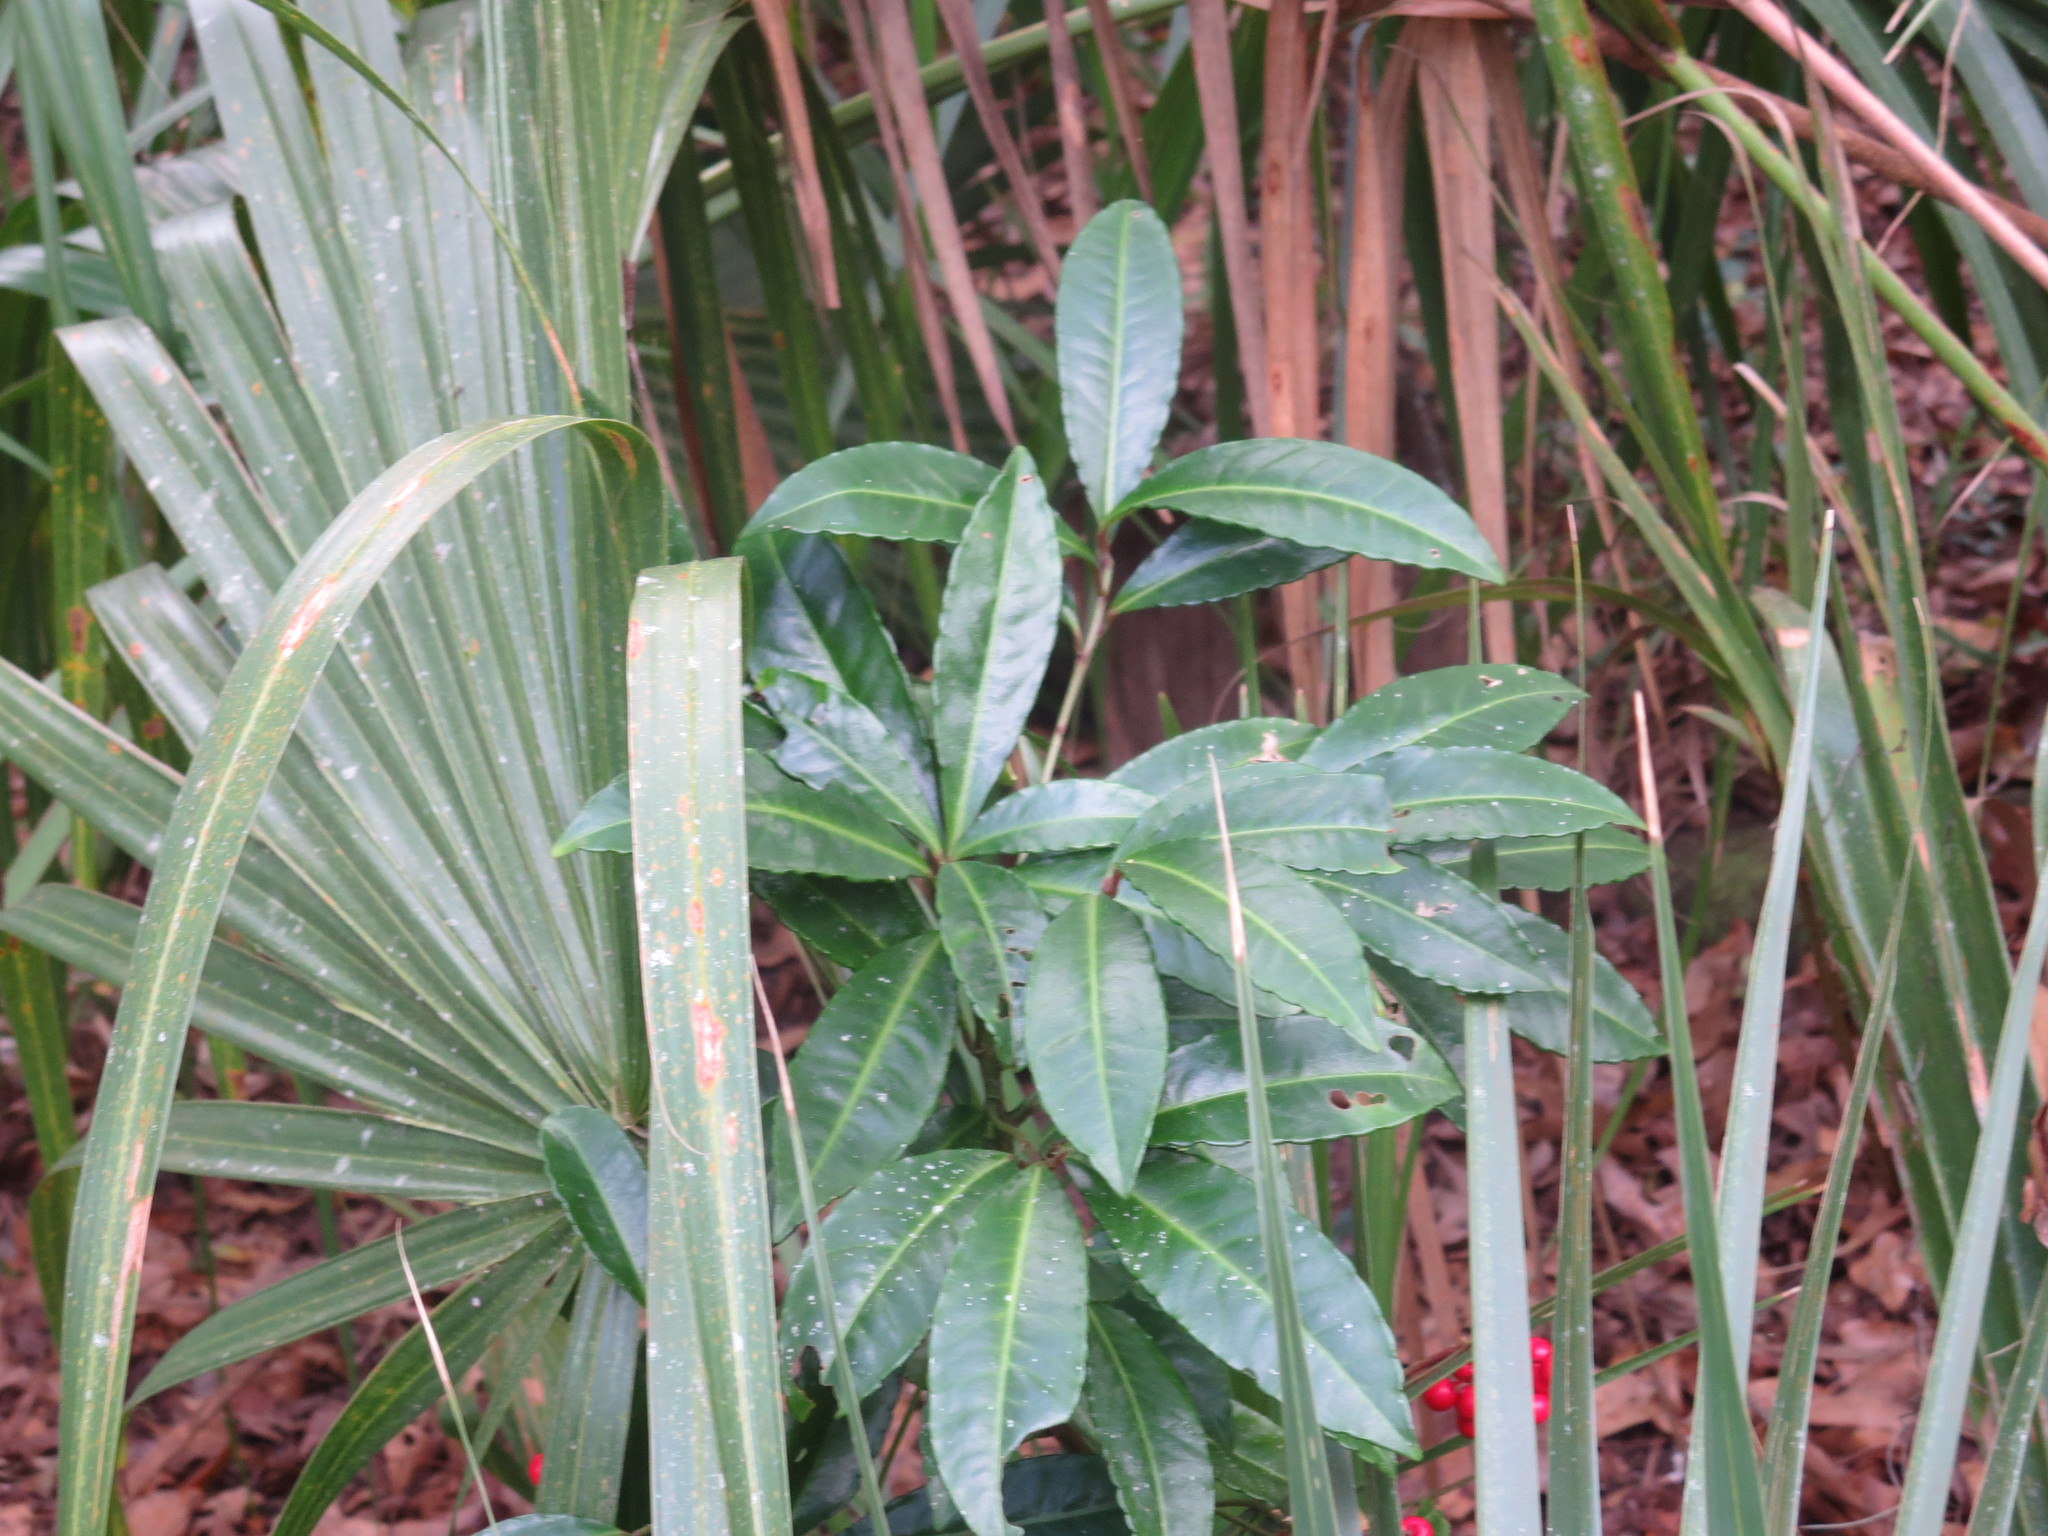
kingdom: Plantae
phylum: Tracheophyta
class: Magnoliopsida
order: Ericales
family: Primulaceae
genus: Ardisia
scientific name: Ardisia crenata
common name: Hen's eyes
